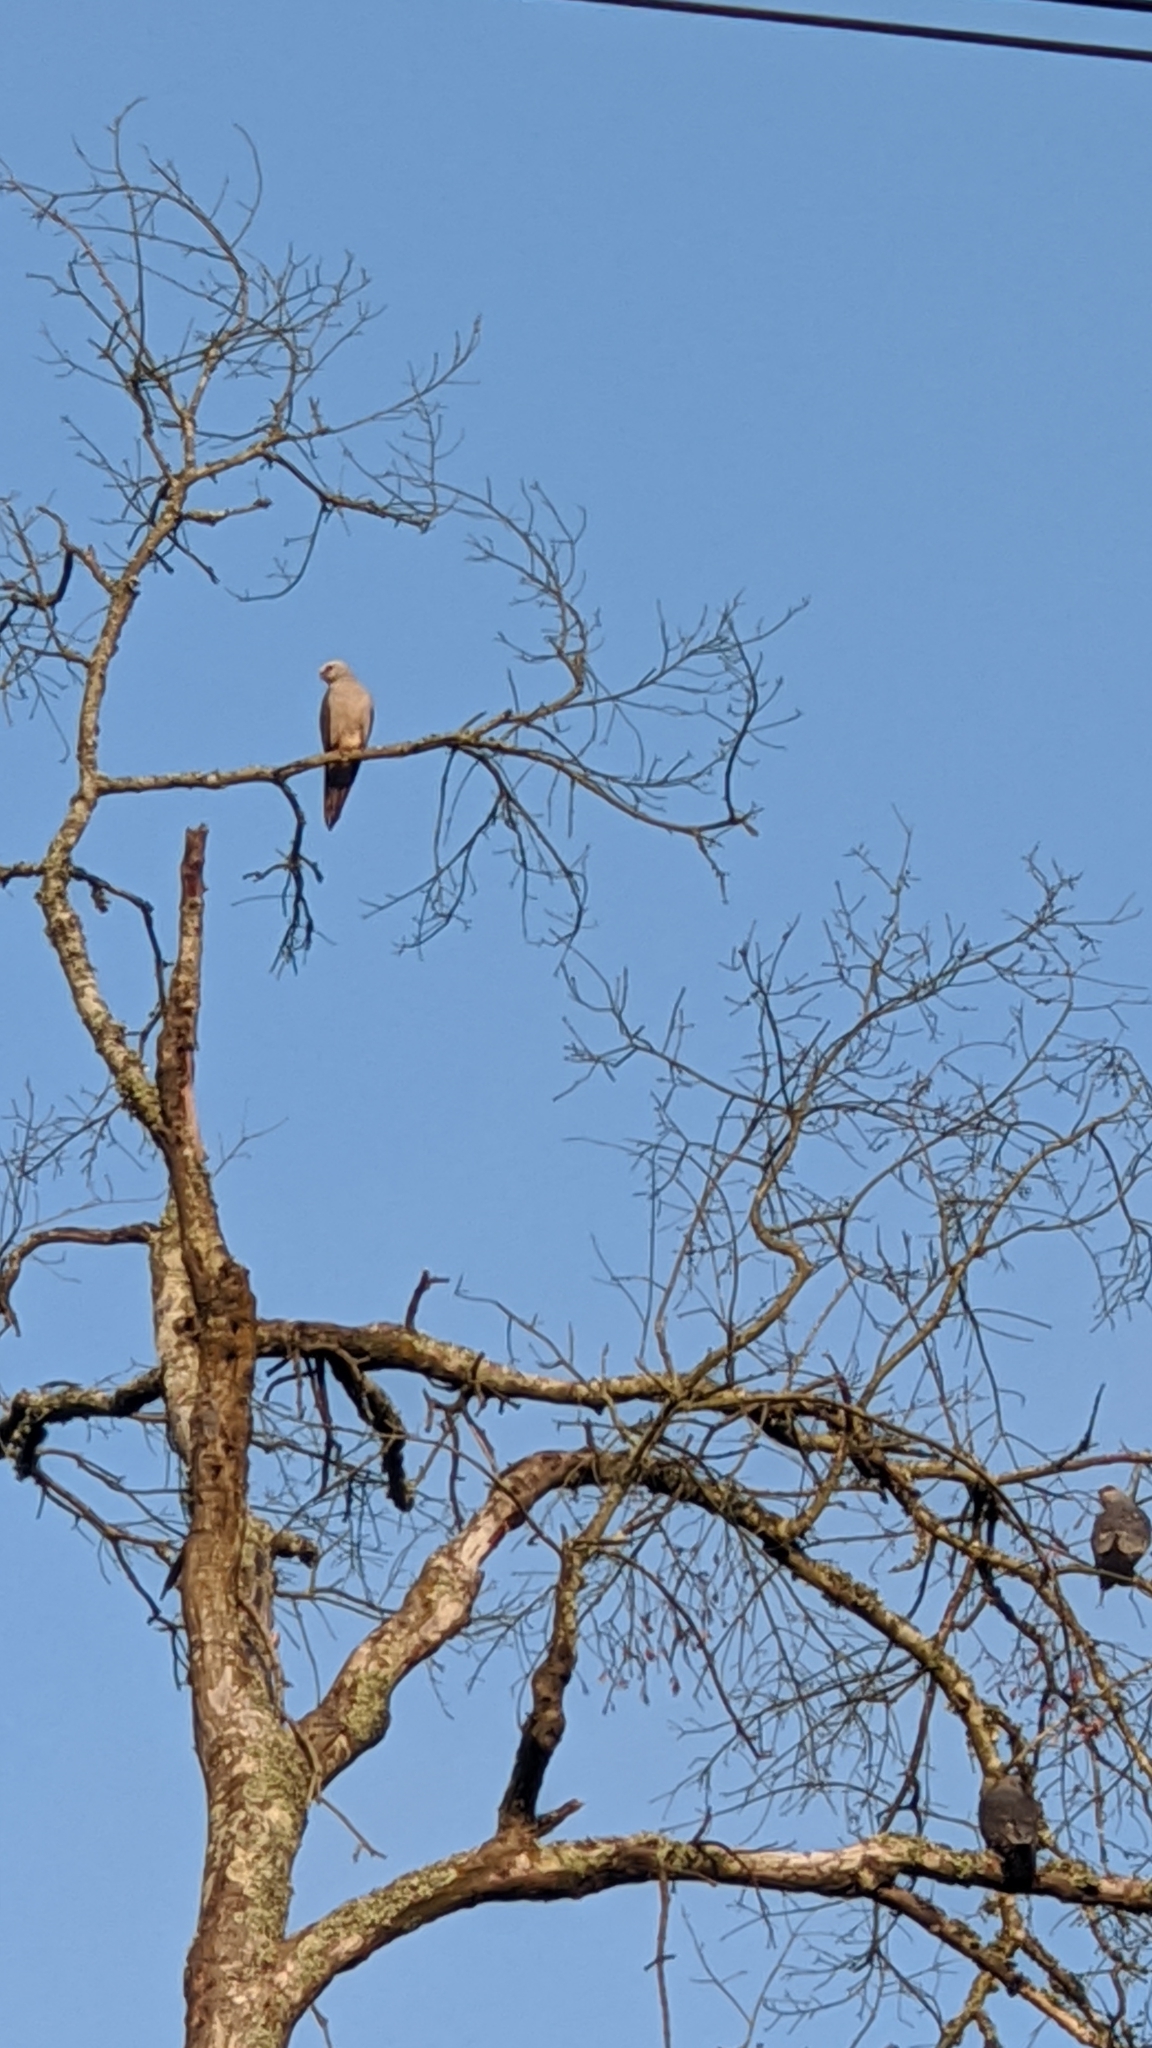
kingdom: Animalia
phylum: Chordata
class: Aves
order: Accipitriformes
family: Accipitridae
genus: Ictinia
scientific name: Ictinia mississippiensis
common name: Mississippi kite
